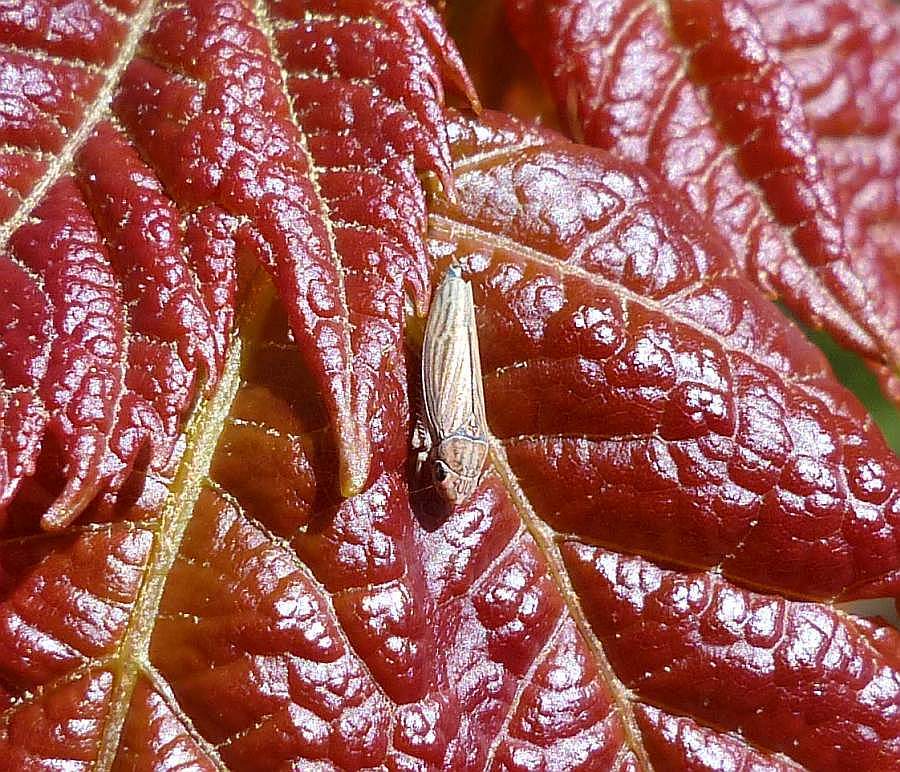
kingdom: Animalia
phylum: Arthropoda
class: Insecta
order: Hemiptera
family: Cicadellidae
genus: Neokolla
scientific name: Neokolla hieroglyphica
